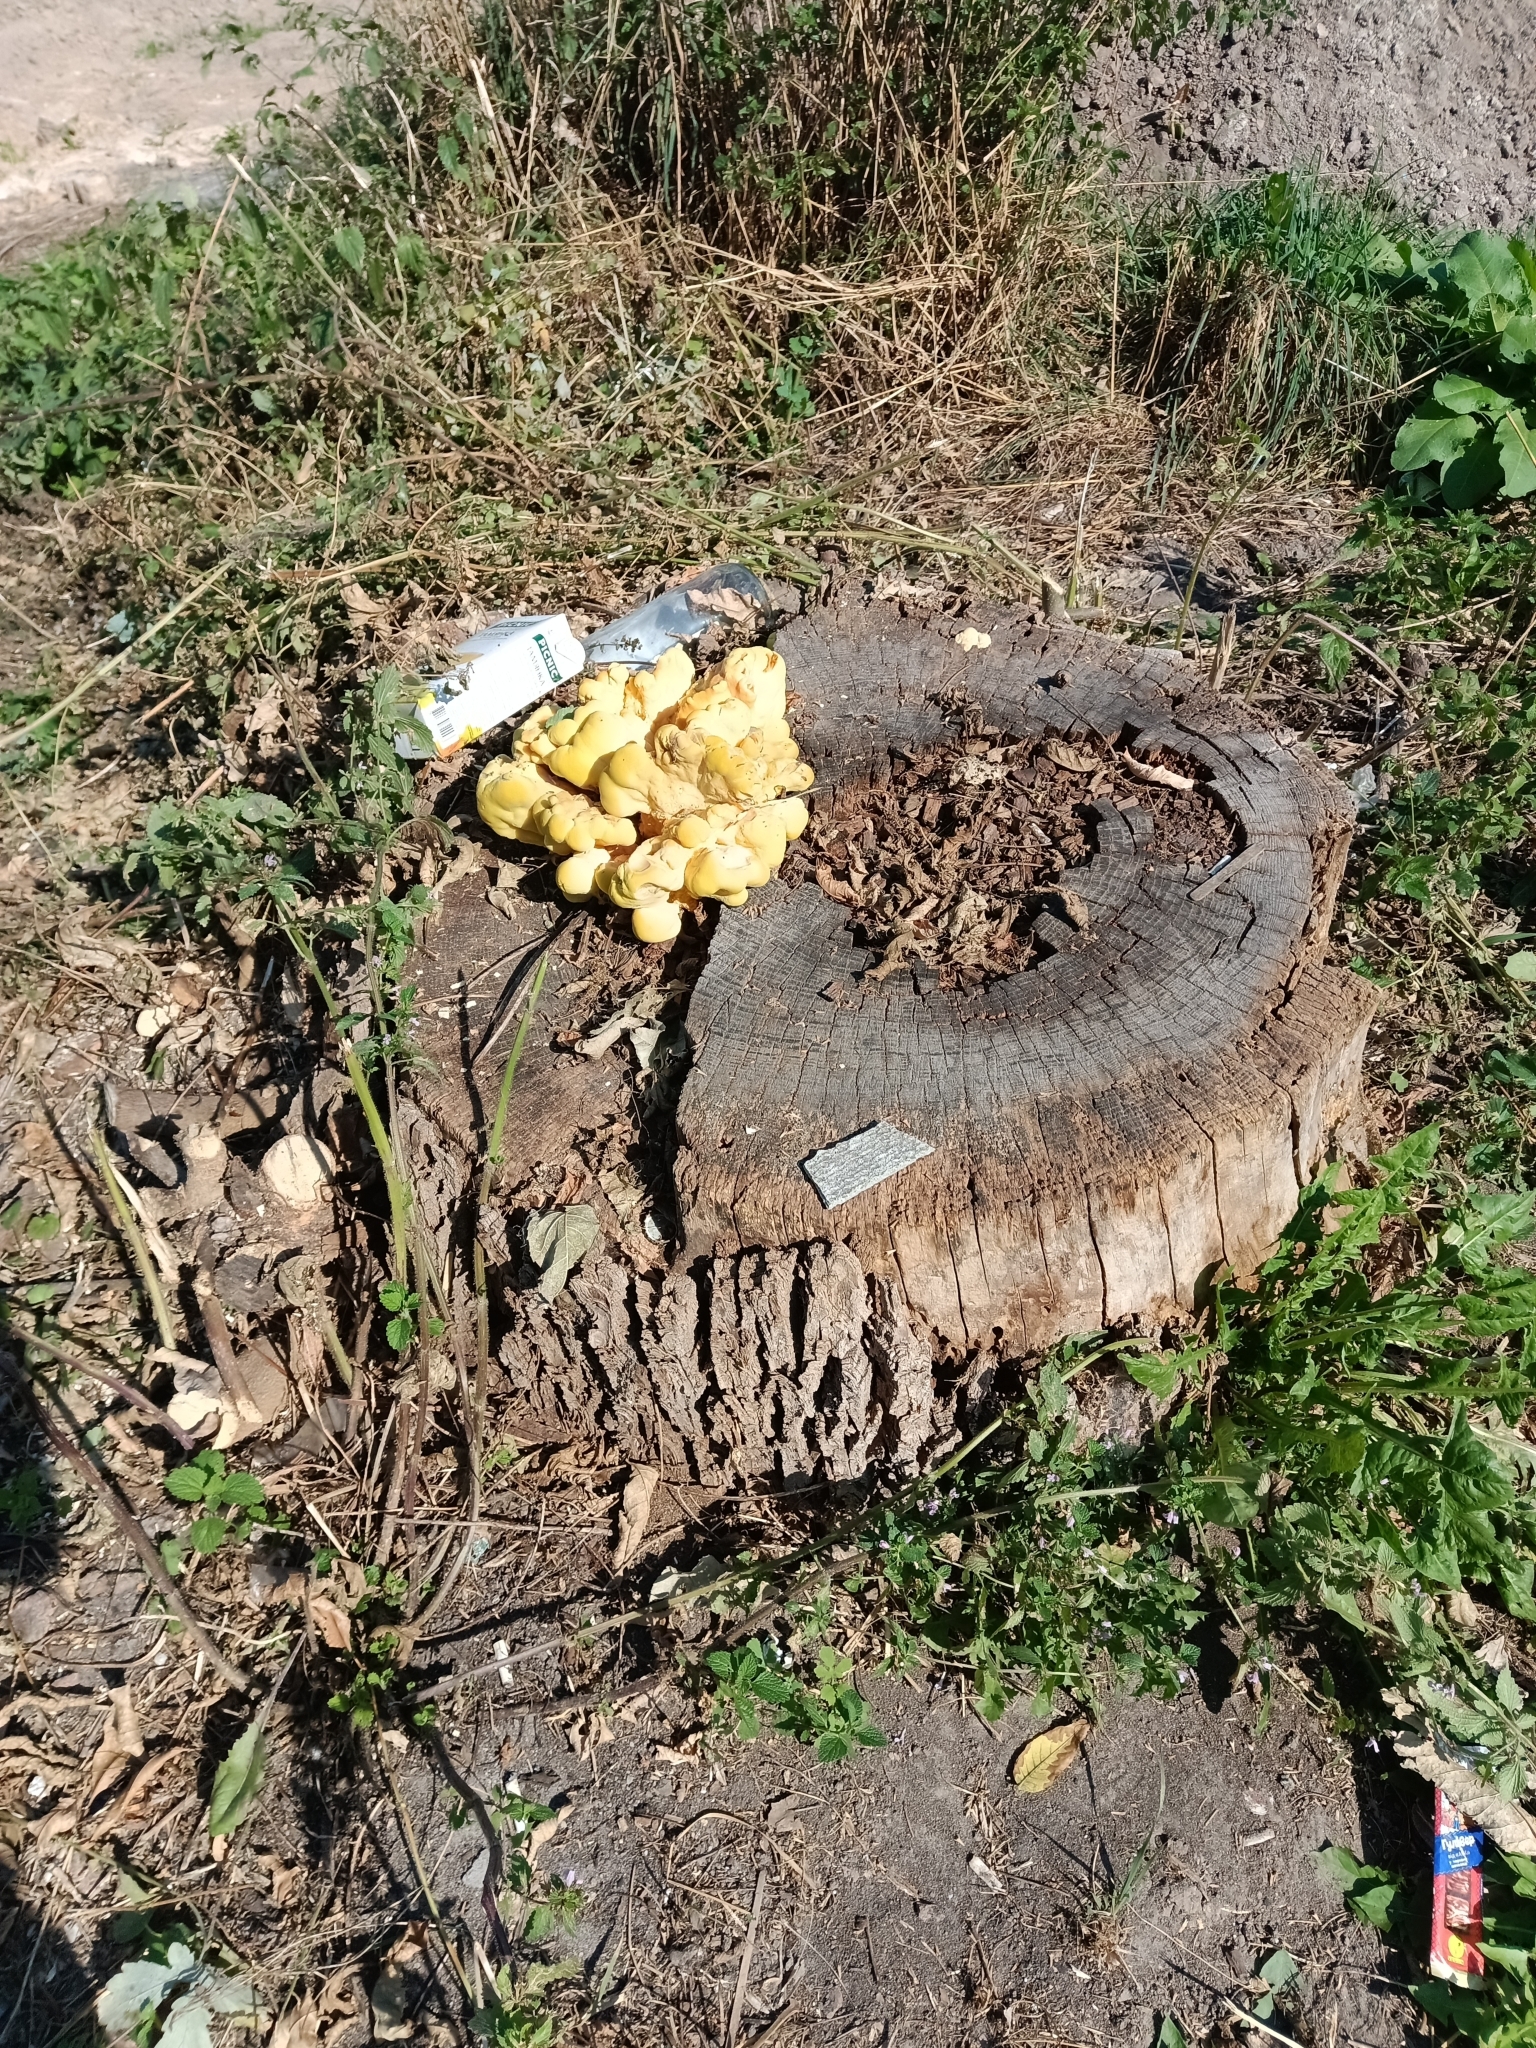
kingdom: Fungi
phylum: Basidiomycota
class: Agaricomycetes
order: Polyporales
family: Laetiporaceae
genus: Laetiporus
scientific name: Laetiporus sulphureus
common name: Chicken of the woods
